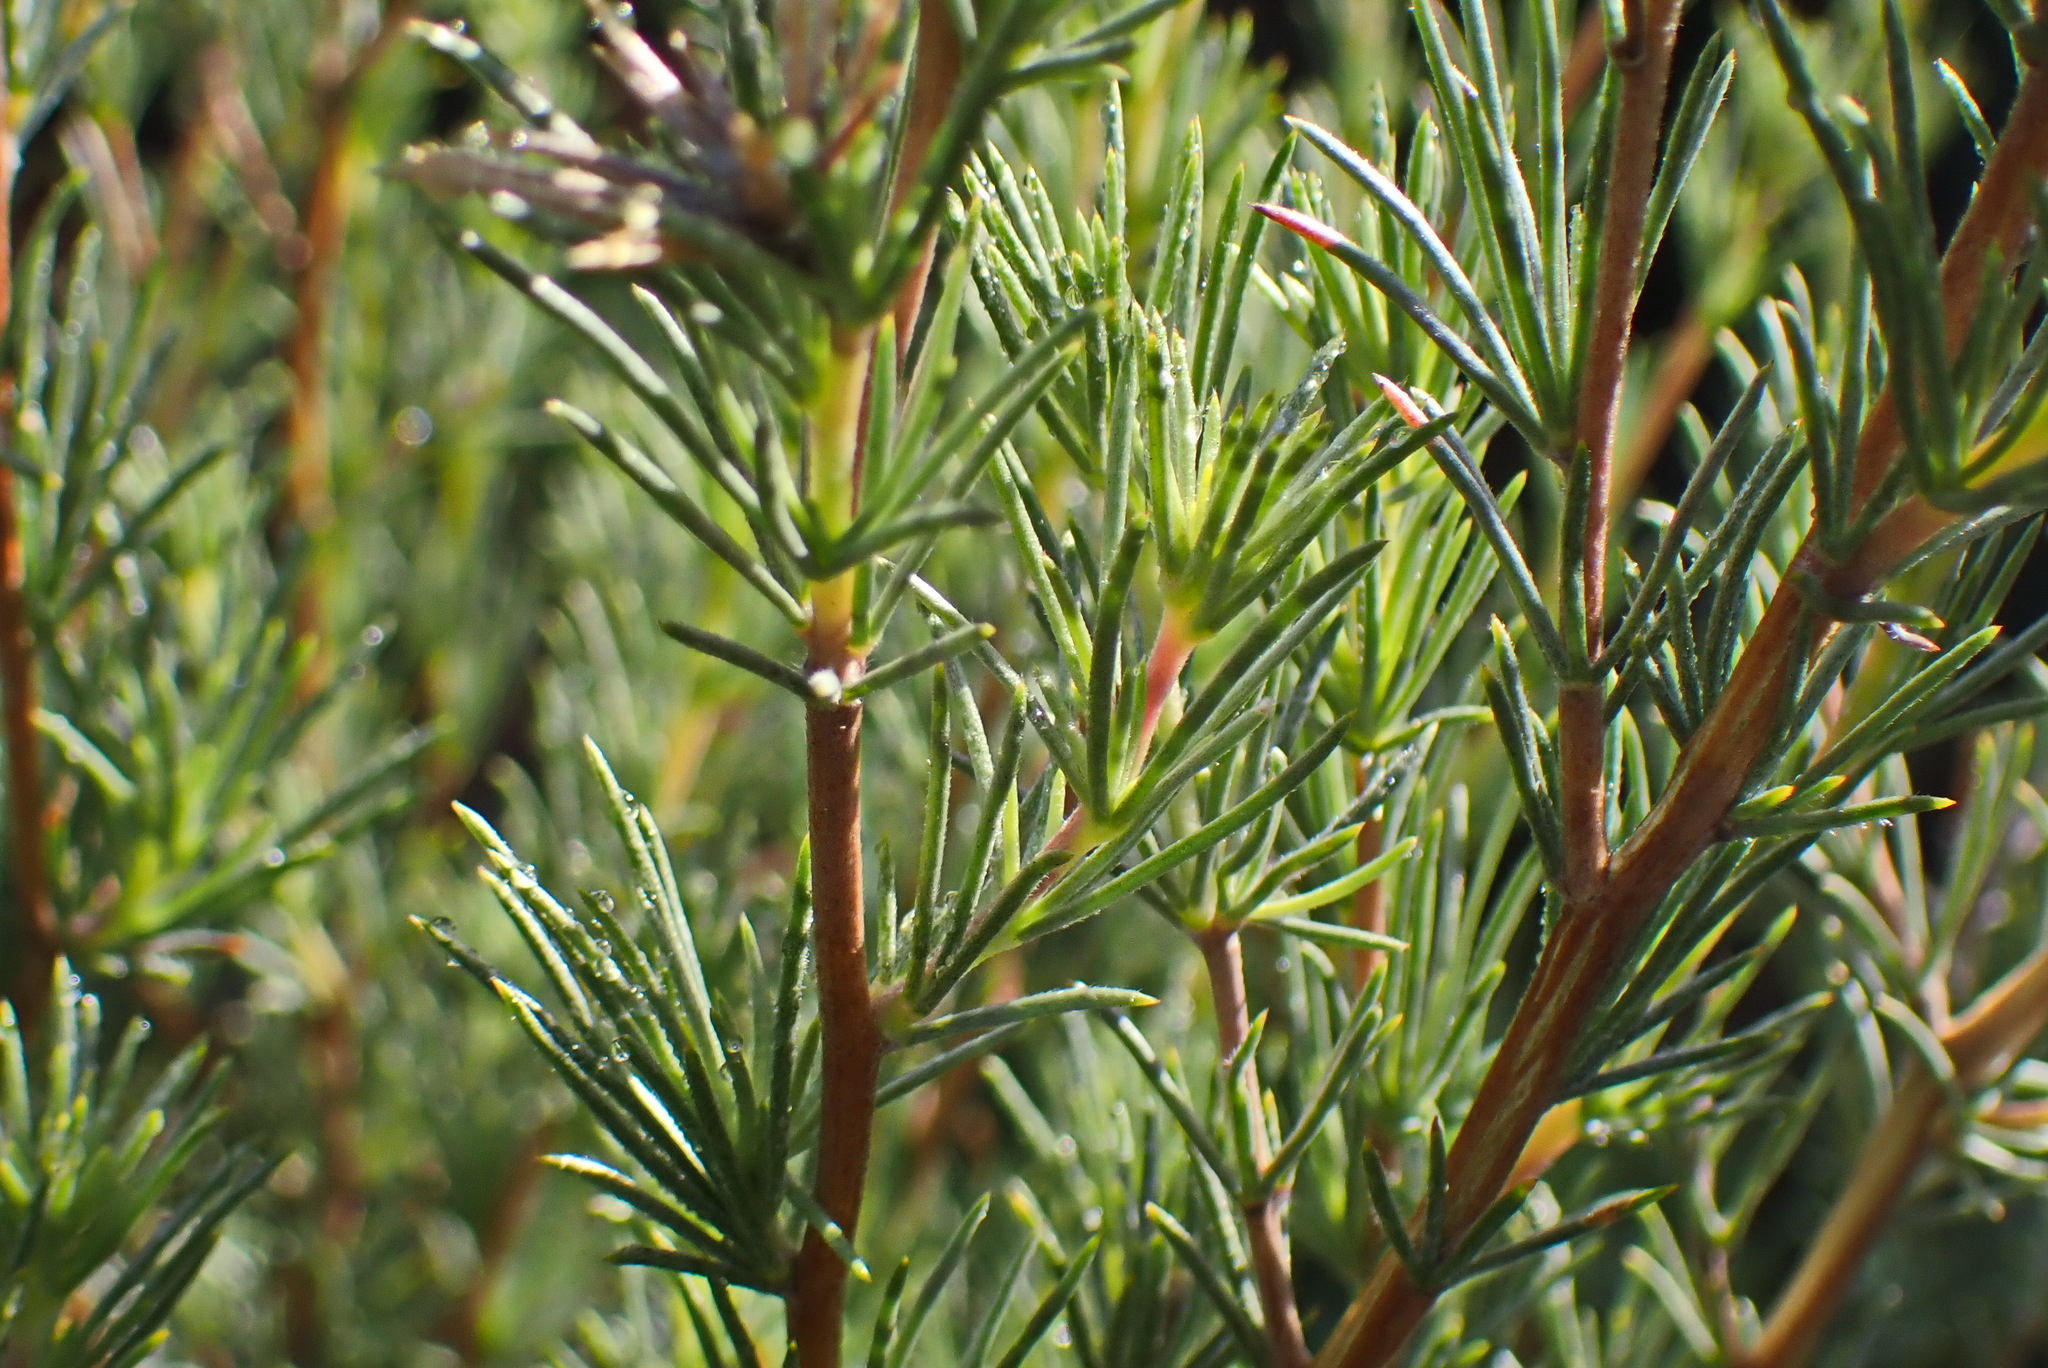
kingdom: Plantae
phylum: Tracheophyta
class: Magnoliopsida
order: Fabales
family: Fabaceae
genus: Aspalathus
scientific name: Aspalathus glabrescens
